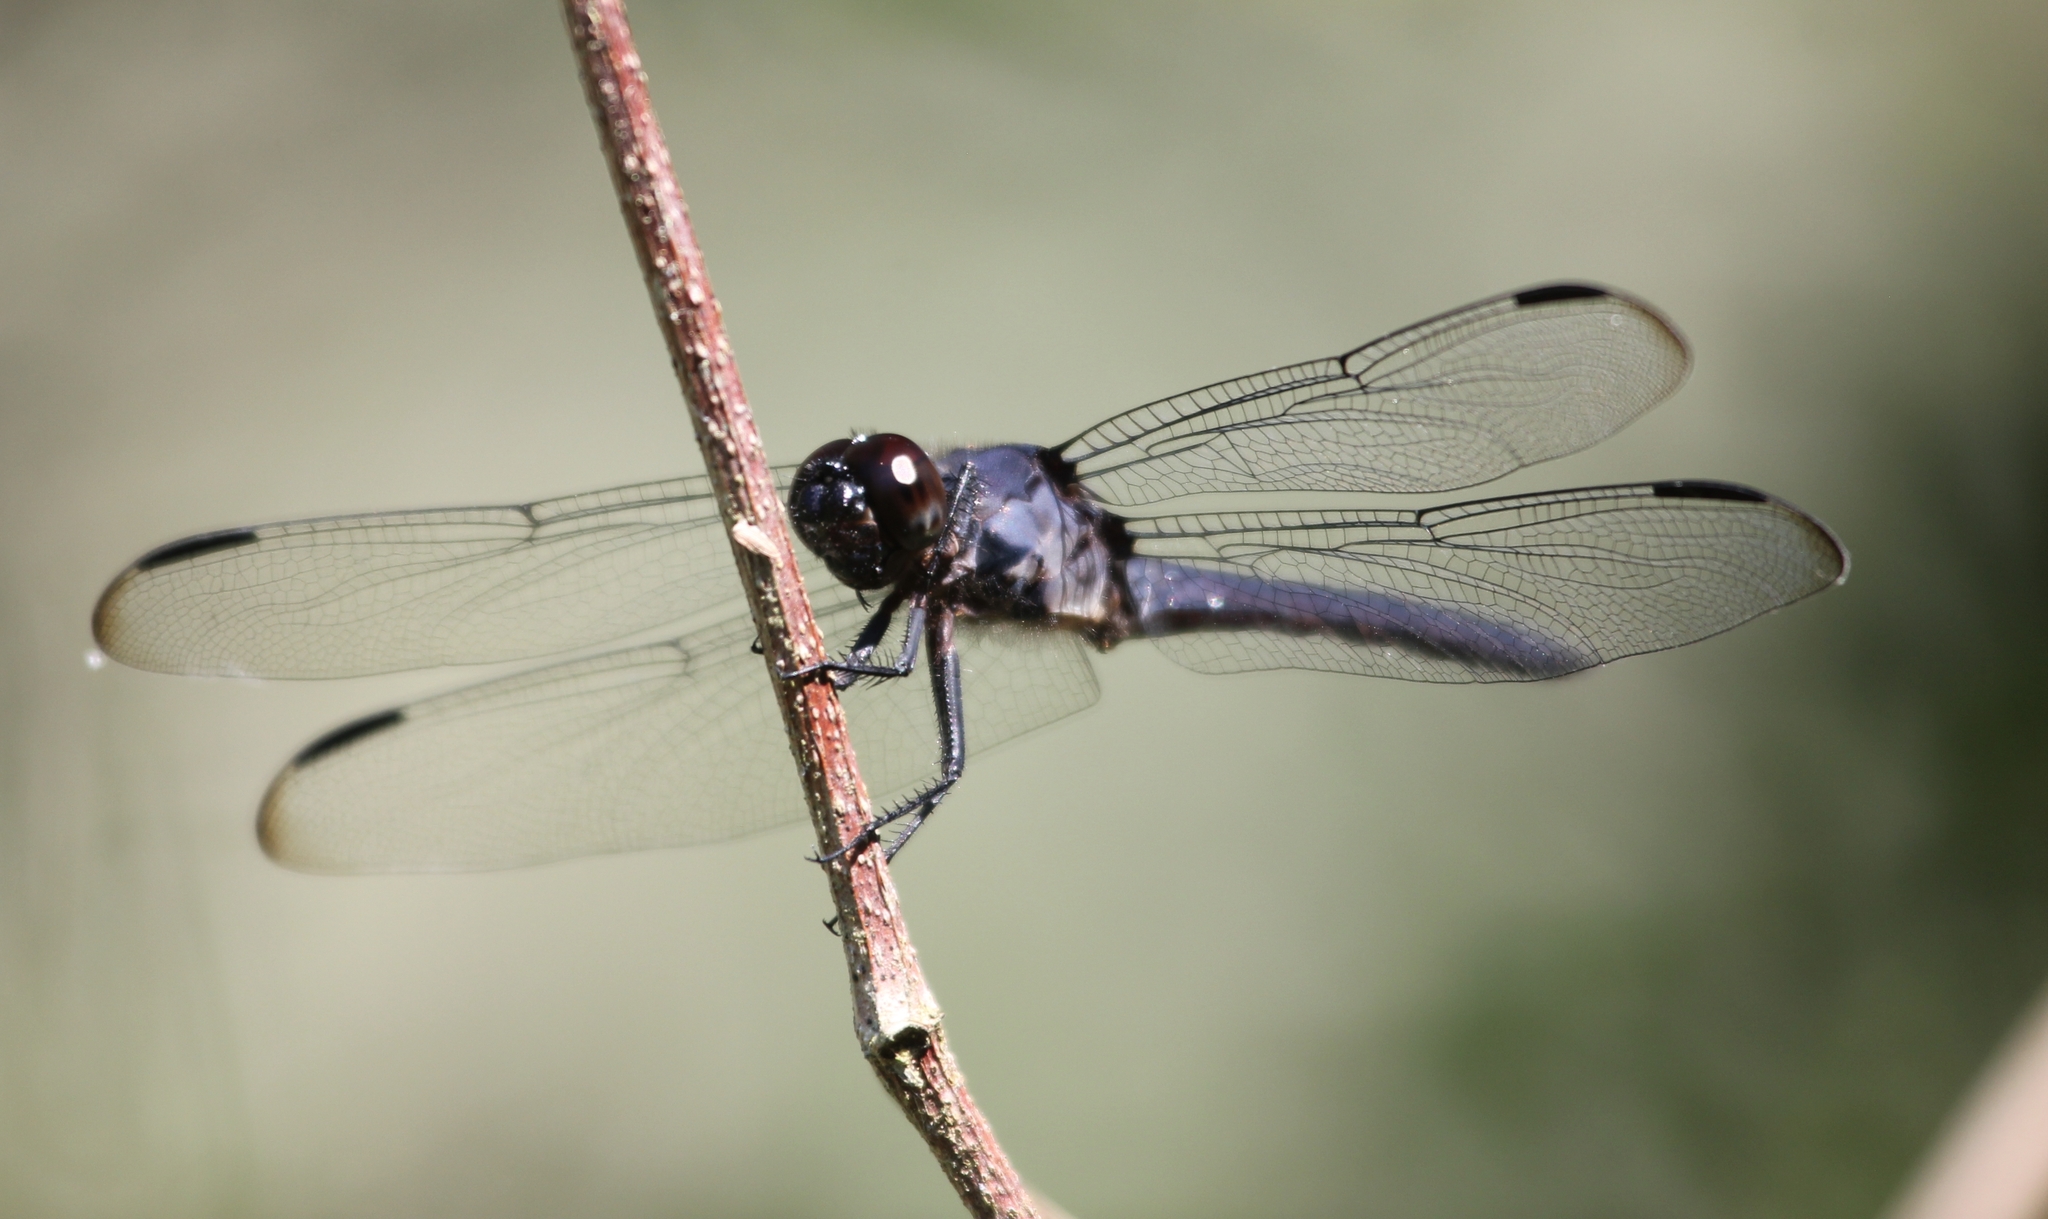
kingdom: Animalia
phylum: Arthropoda
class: Insecta
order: Odonata
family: Libellulidae
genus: Libellula
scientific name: Libellula incesta
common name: Slaty skimmer
